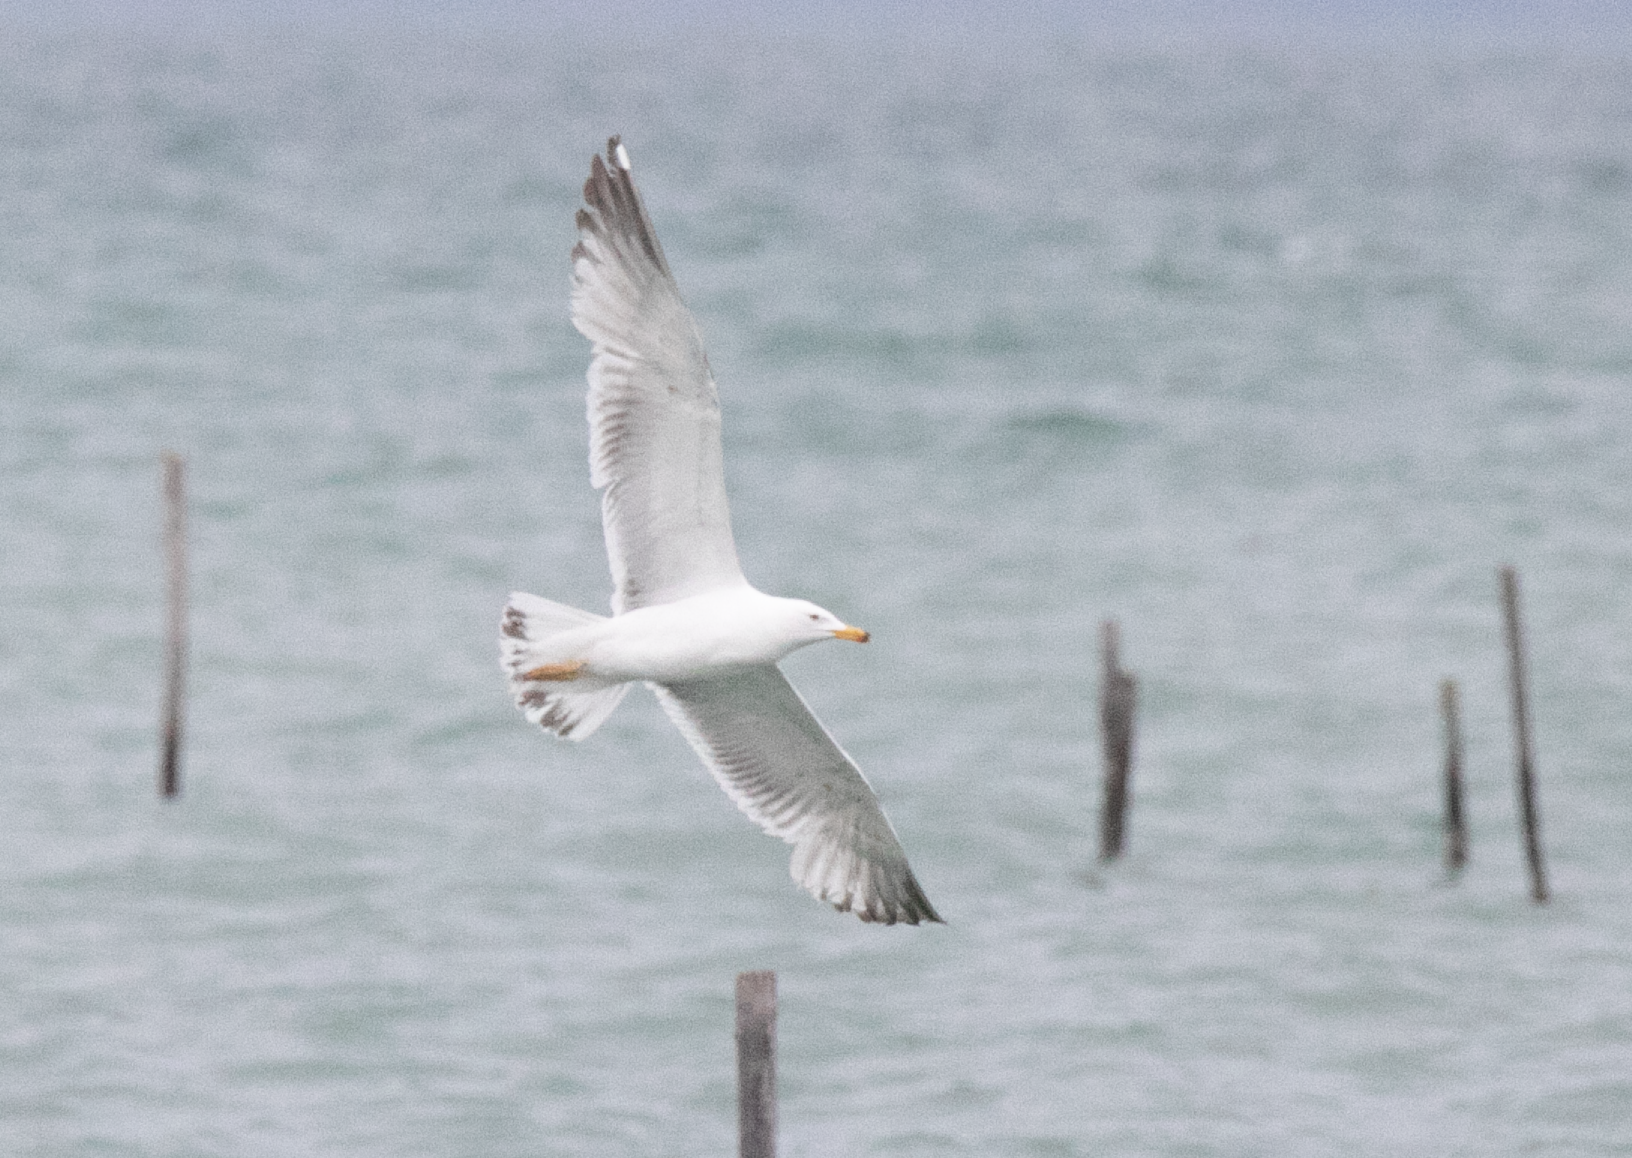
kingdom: Animalia
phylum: Chordata
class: Aves
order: Charadriiformes
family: Laridae
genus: Larus
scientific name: Larus michahellis
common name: Yellow-legged gull
